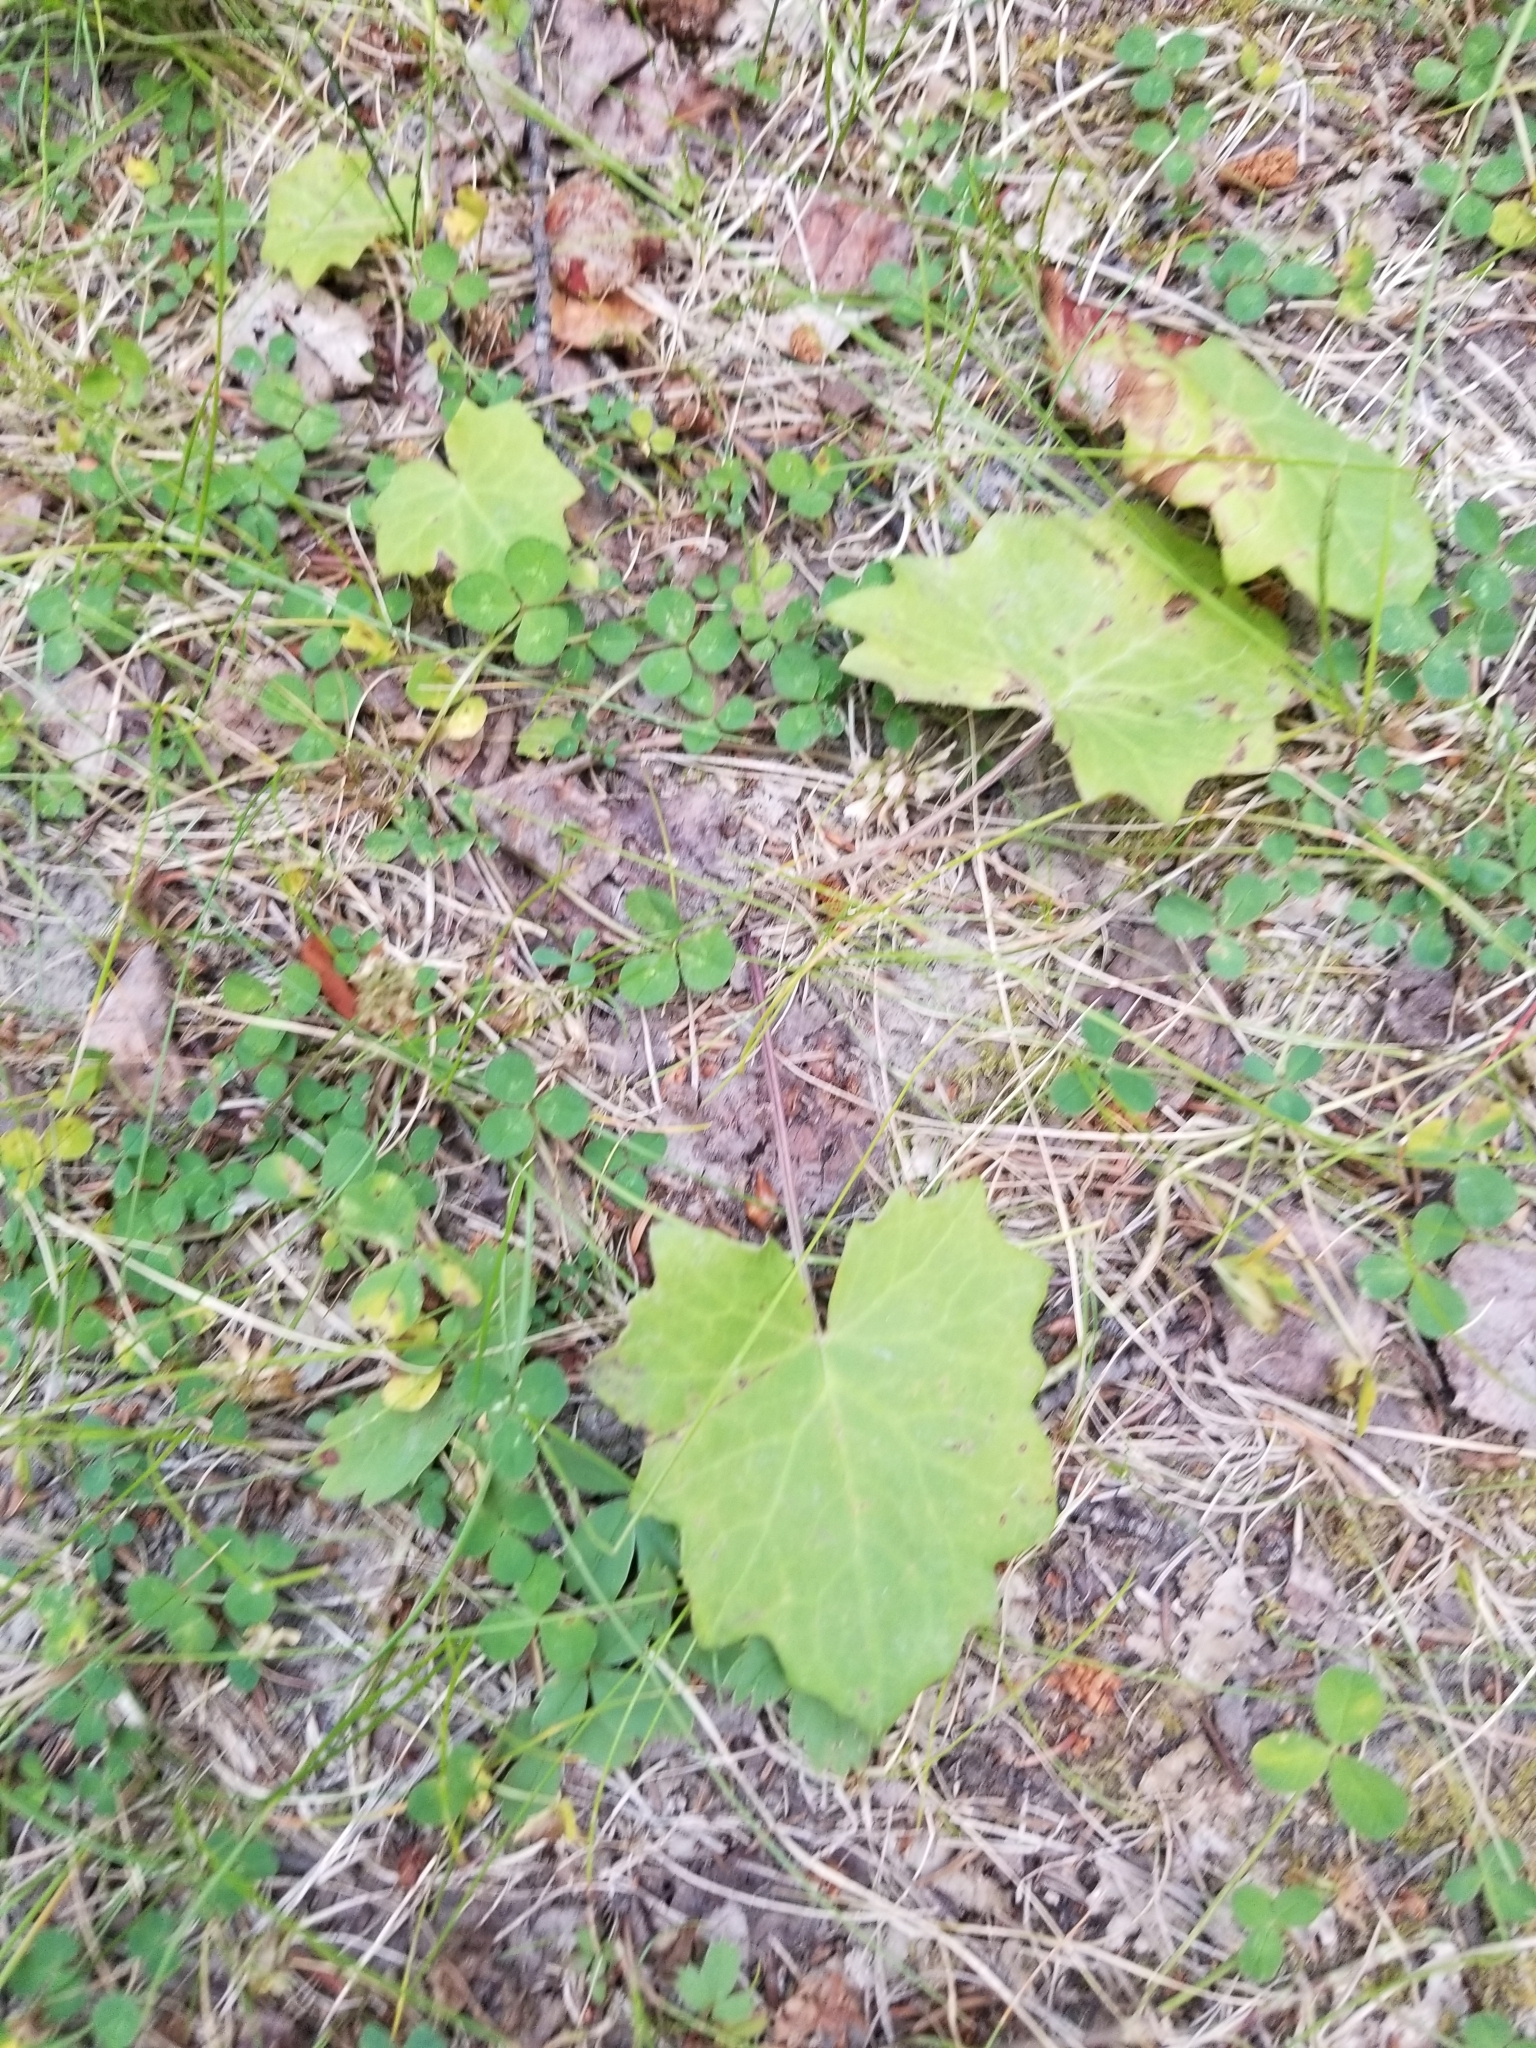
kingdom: Plantae
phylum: Tracheophyta
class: Magnoliopsida
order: Asterales
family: Asteraceae
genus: Tussilago
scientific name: Tussilago farfara
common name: Coltsfoot
